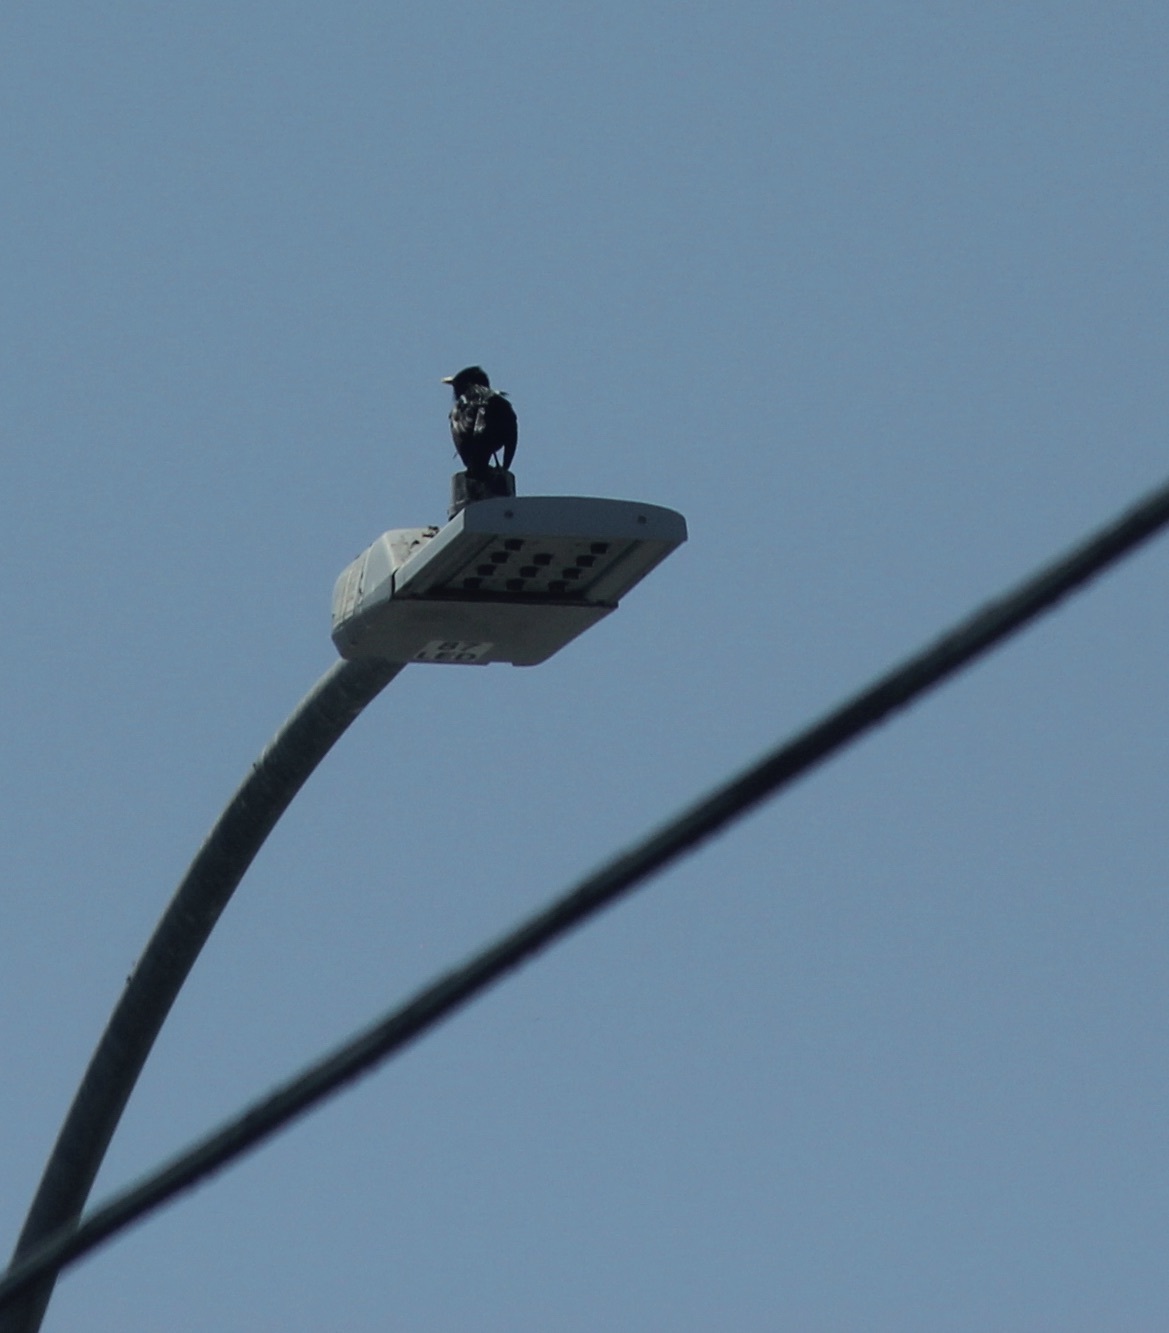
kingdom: Animalia
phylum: Chordata
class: Aves
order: Passeriformes
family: Sturnidae
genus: Sturnus
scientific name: Sturnus vulgaris
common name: Common starling
